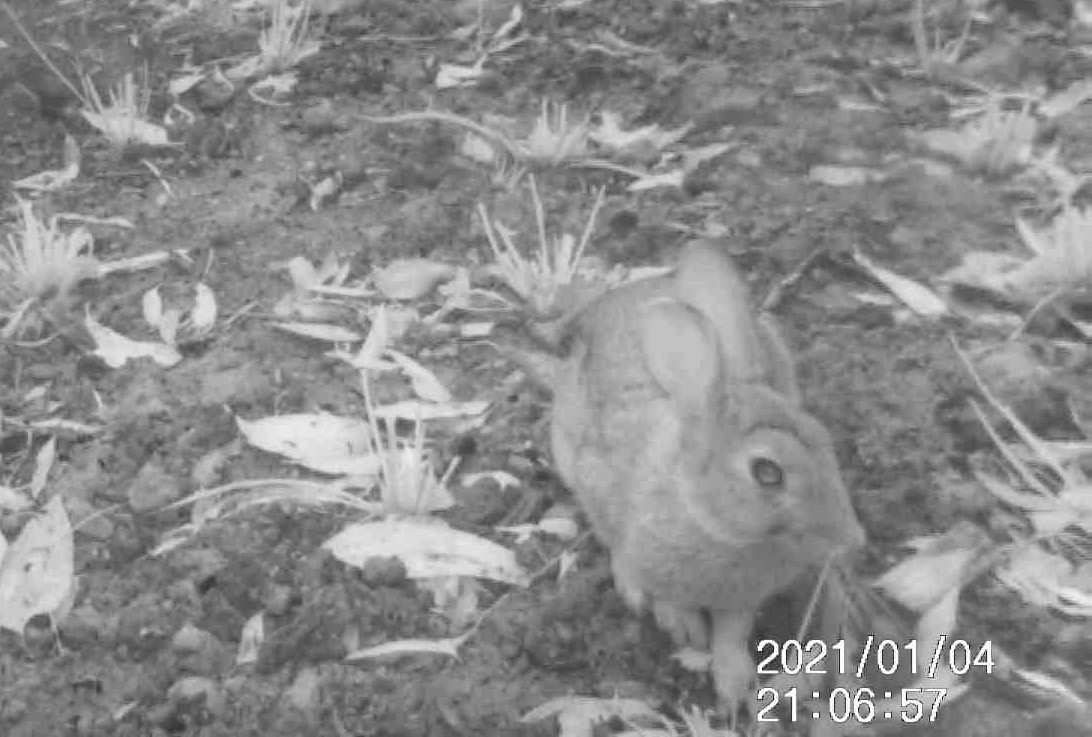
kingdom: Animalia
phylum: Chordata
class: Mammalia
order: Lagomorpha
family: Leporidae
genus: Oryctolagus
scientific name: Oryctolagus cuniculus
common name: European rabbit
